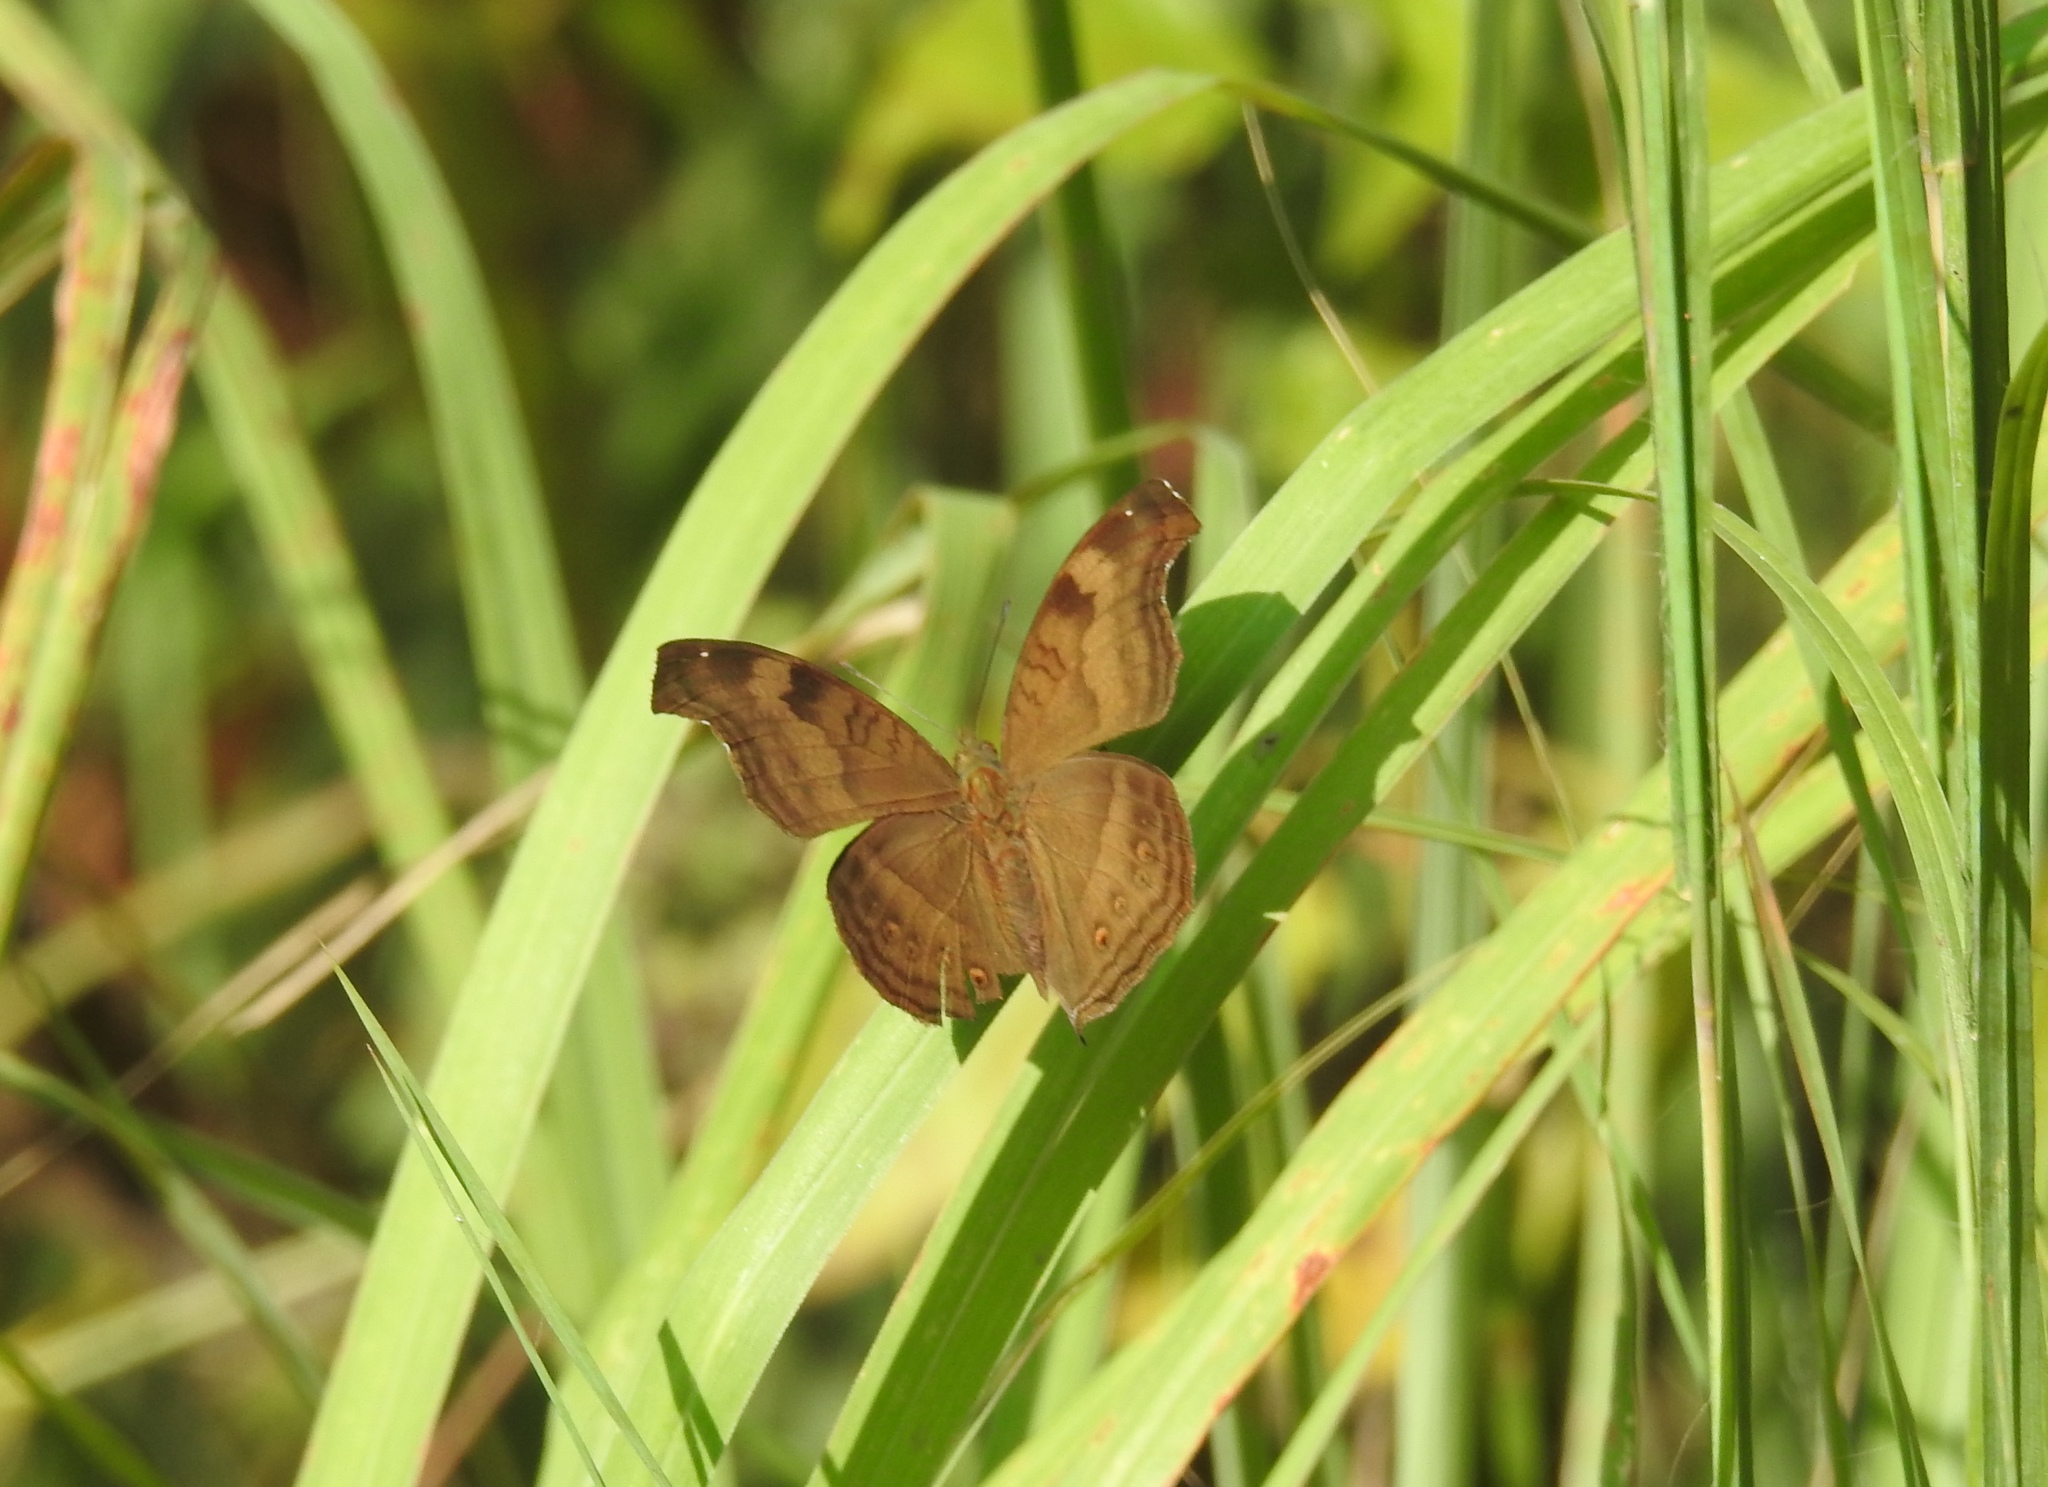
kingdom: Animalia
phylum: Arthropoda
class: Insecta
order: Lepidoptera
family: Nymphalidae
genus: Junonia
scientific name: Junonia iphita
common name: Chocolate pansy
